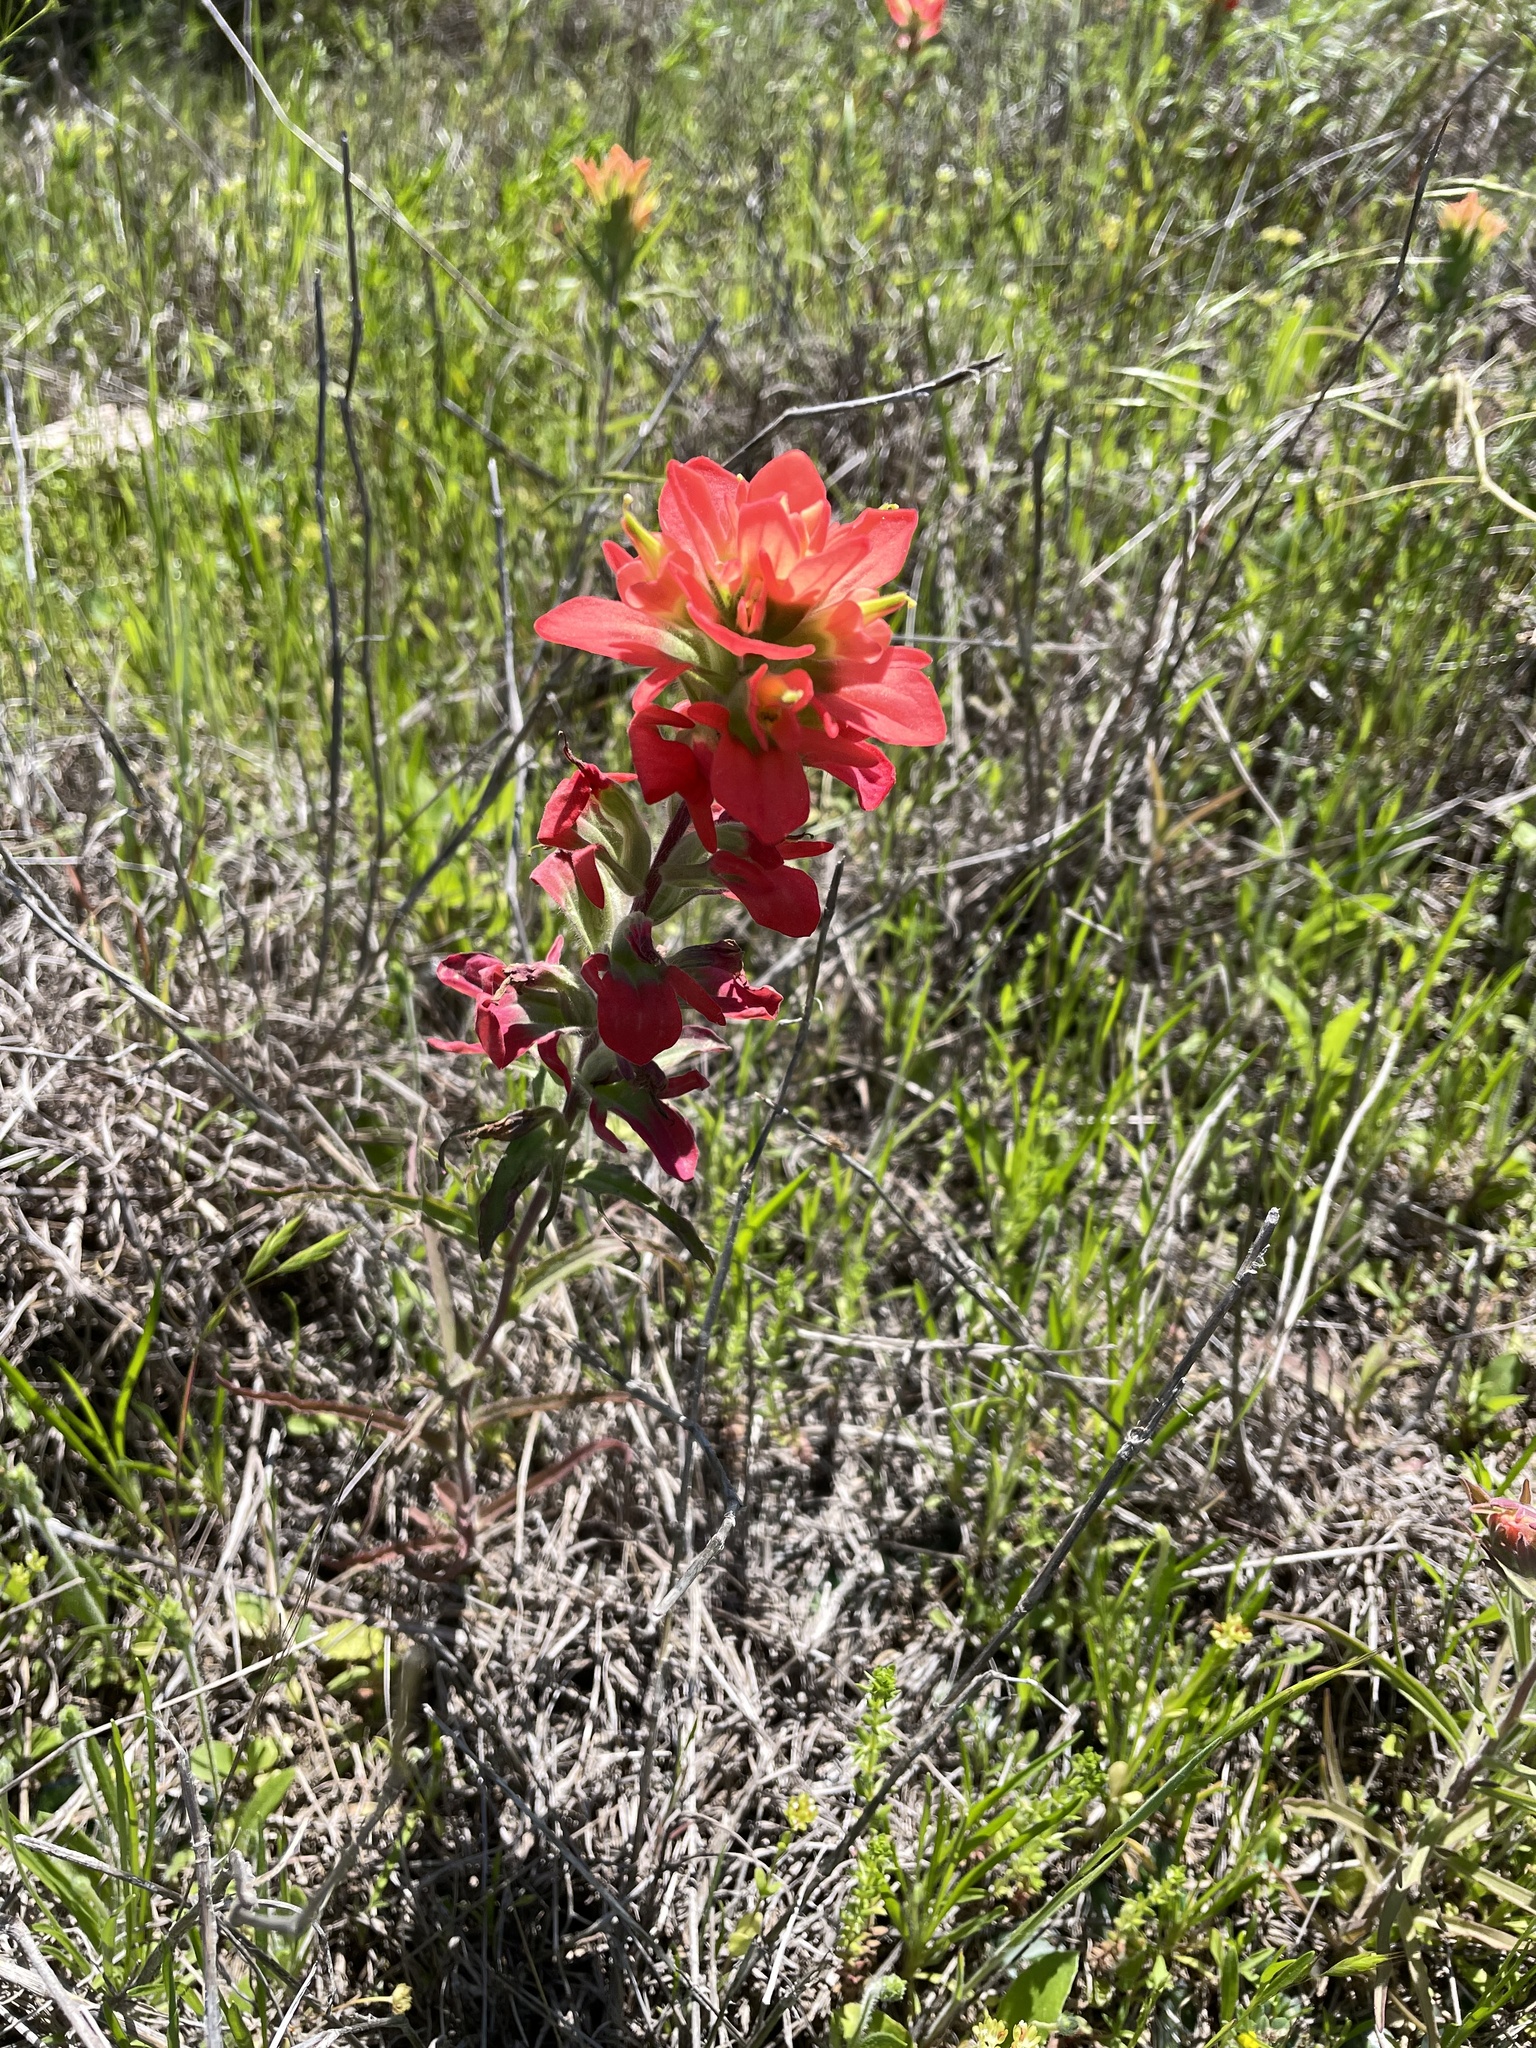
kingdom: Plantae
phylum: Tracheophyta
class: Magnoliopsida
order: Lamiales
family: Orobanchaceae
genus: Castilleja
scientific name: Castilleja indivisa
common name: Texas paintbrush
